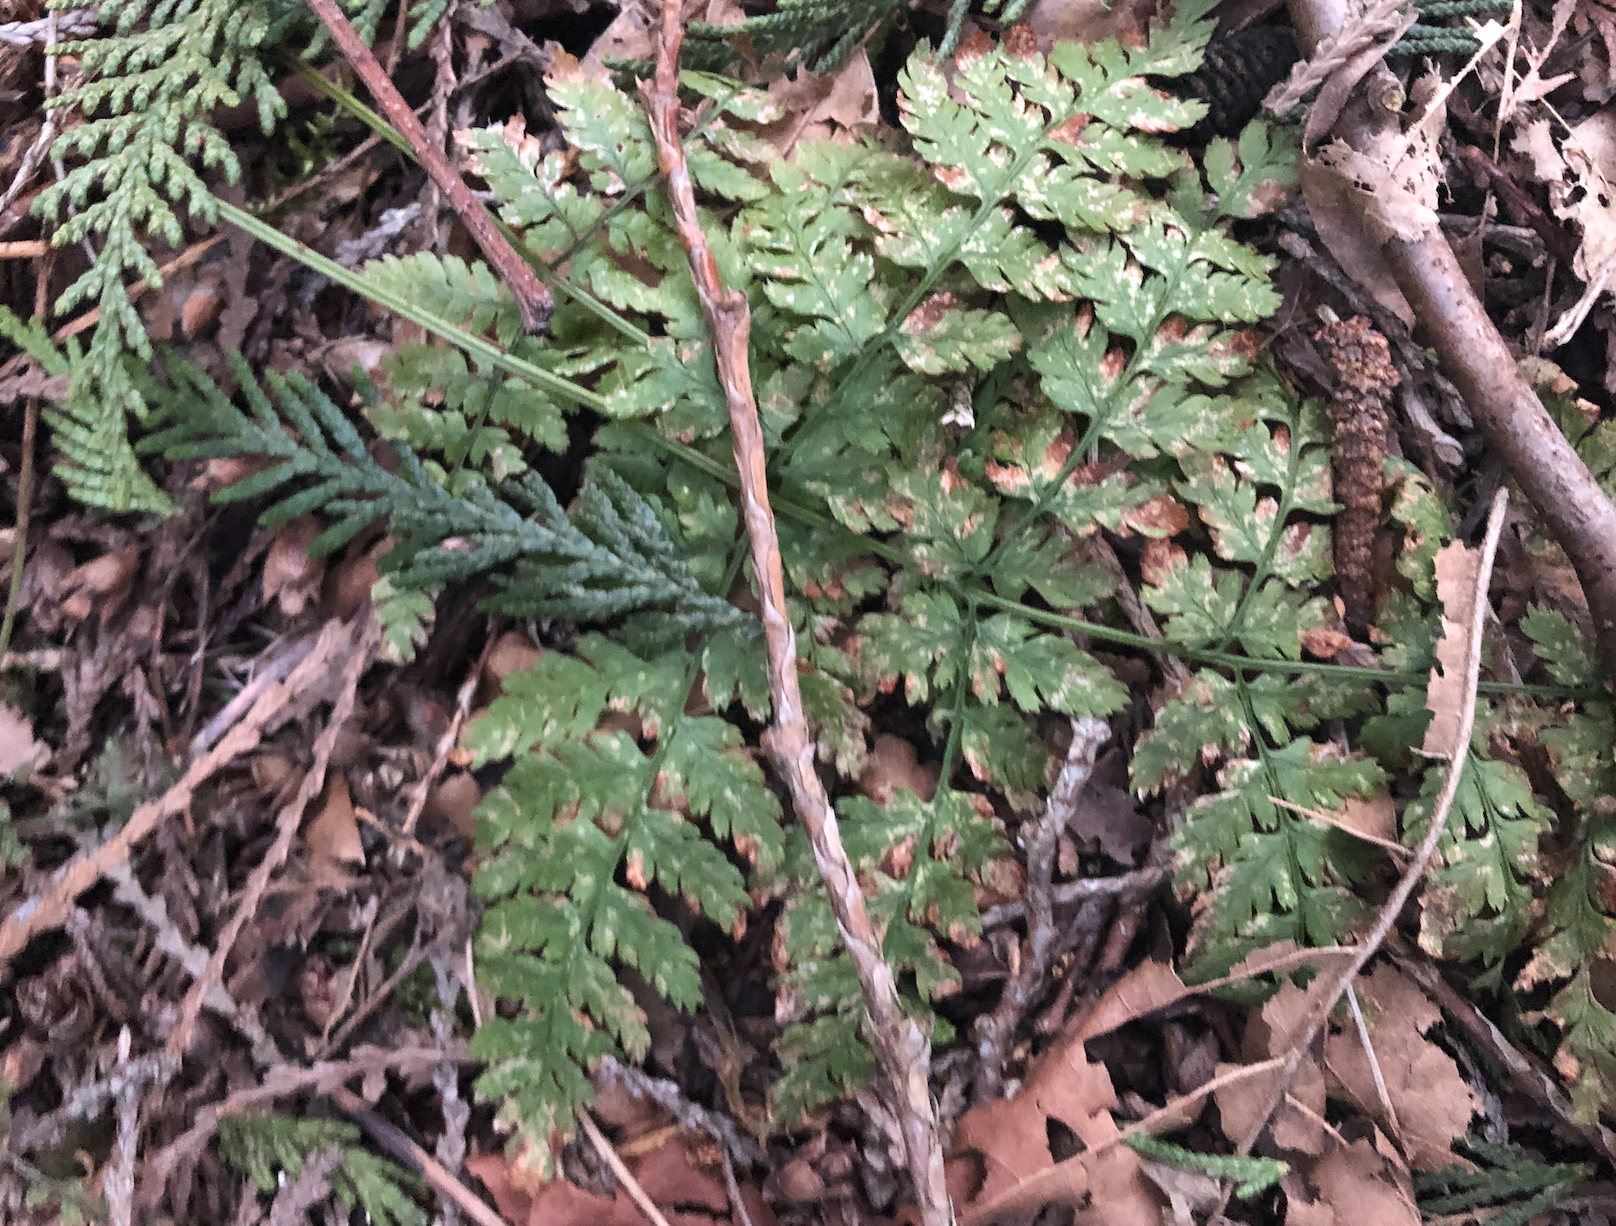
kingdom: Plantae
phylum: Tracheophyta
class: Polypodiopsida
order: Polypodiales
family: Dryopteridaceae
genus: Dryopteris
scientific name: Dryopteris expansa
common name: Northern buckler fern
